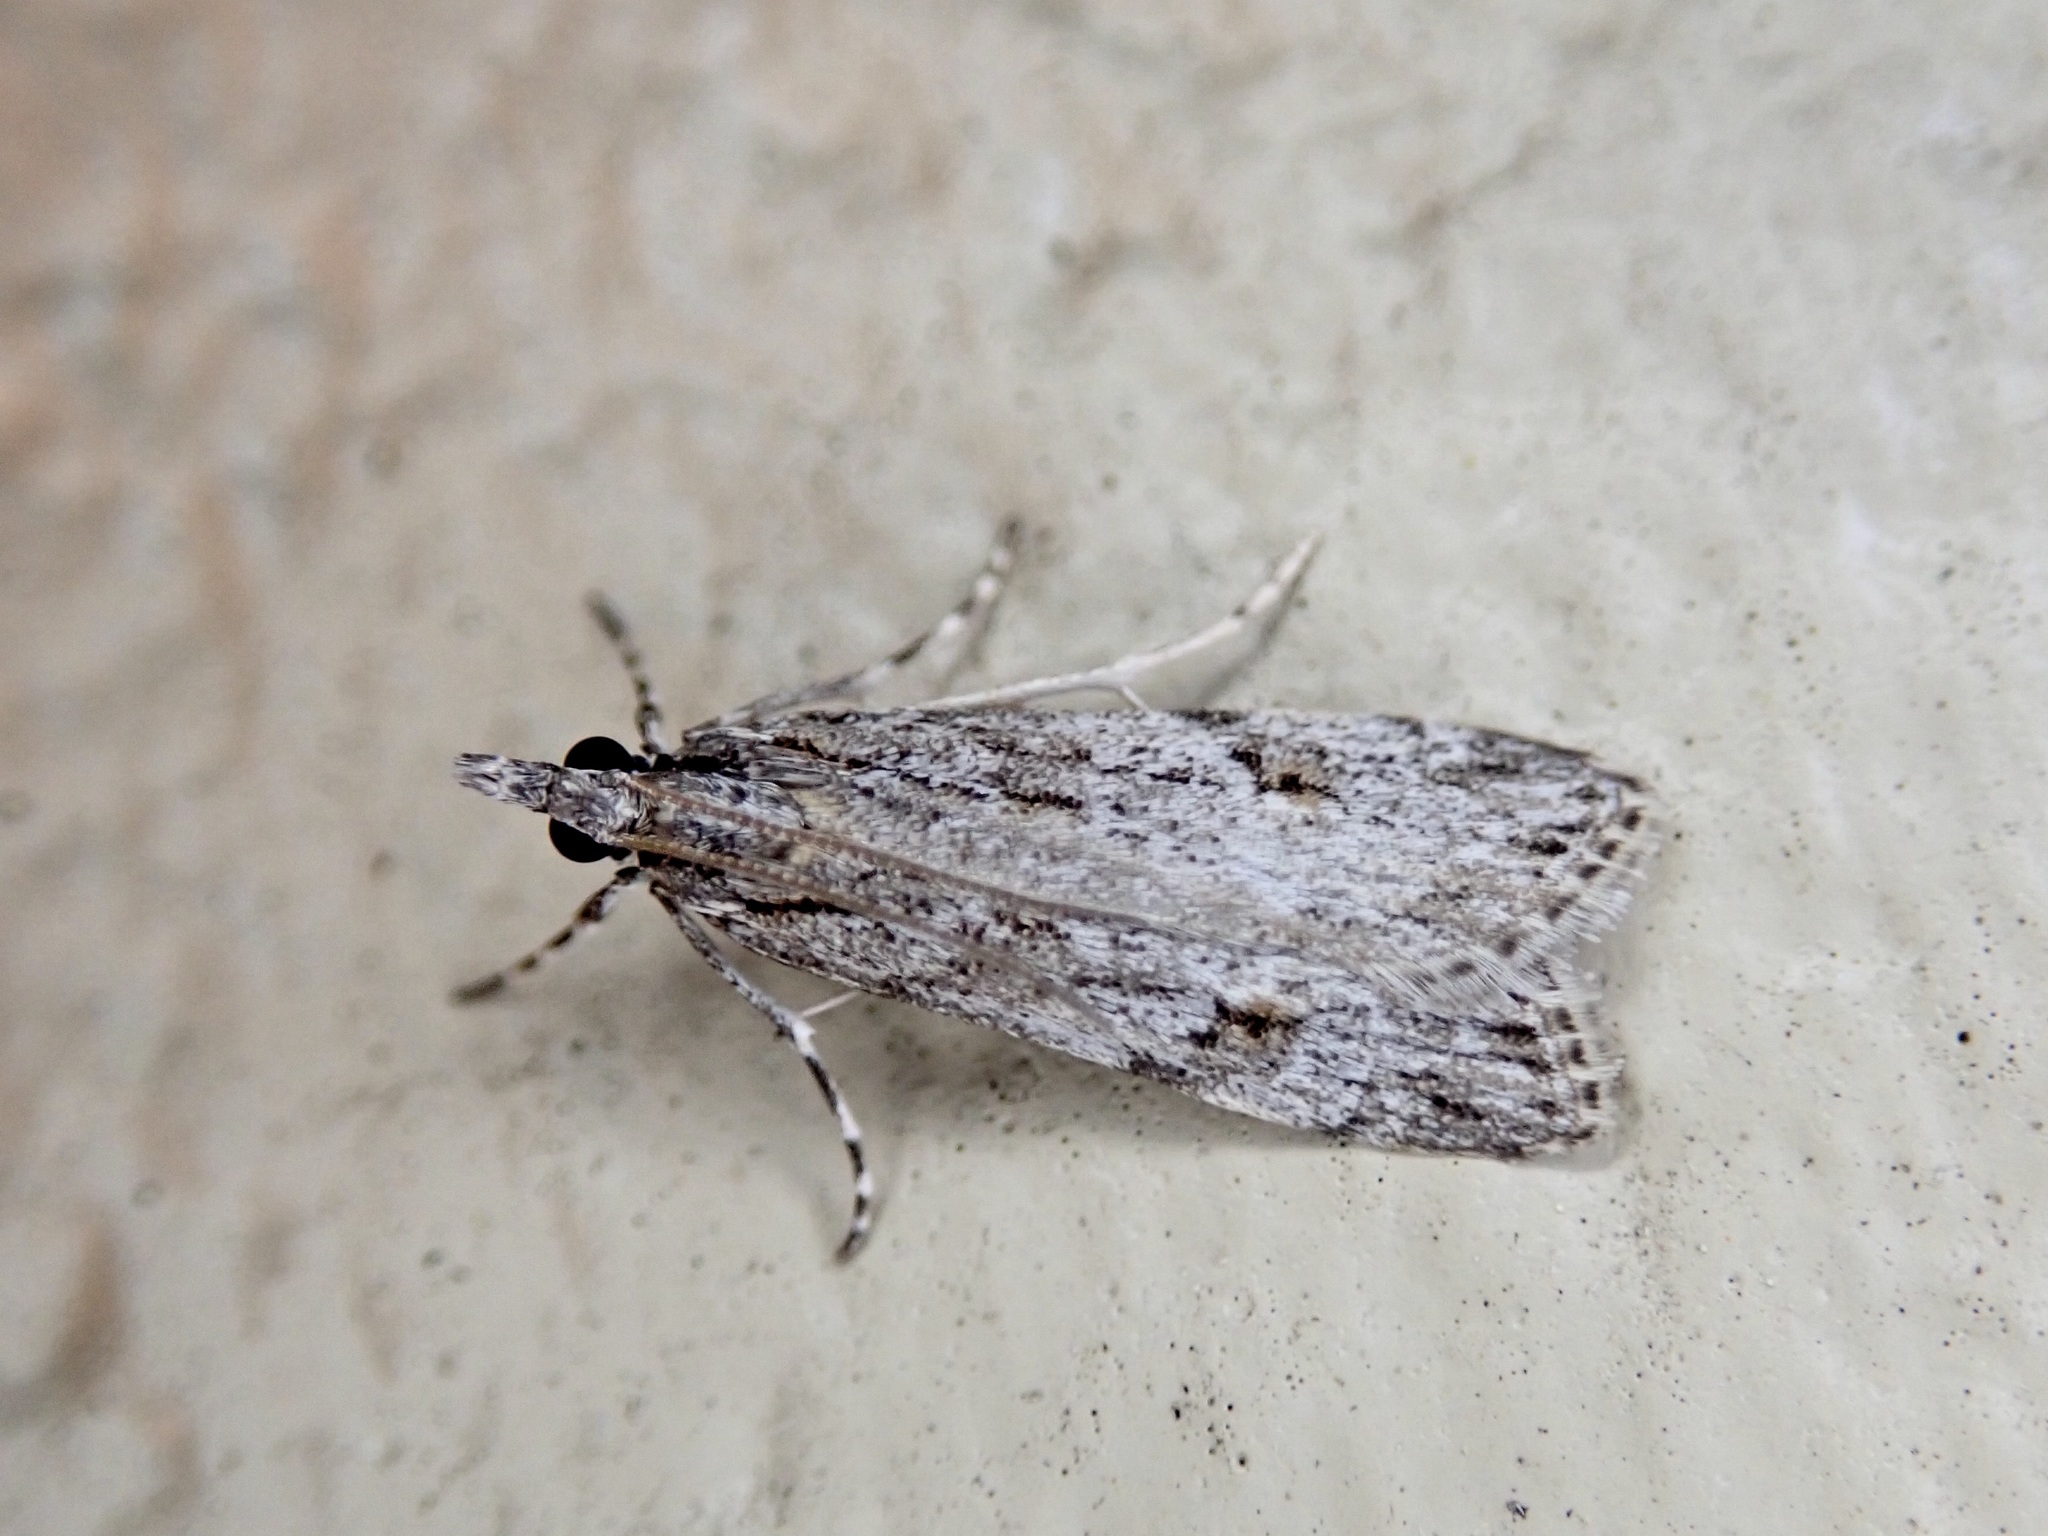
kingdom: Animalia
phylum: Arthropoda
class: Insecta
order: Lepidoptera
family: Crambidae
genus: Scoparia
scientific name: Scoparia chalicodes
